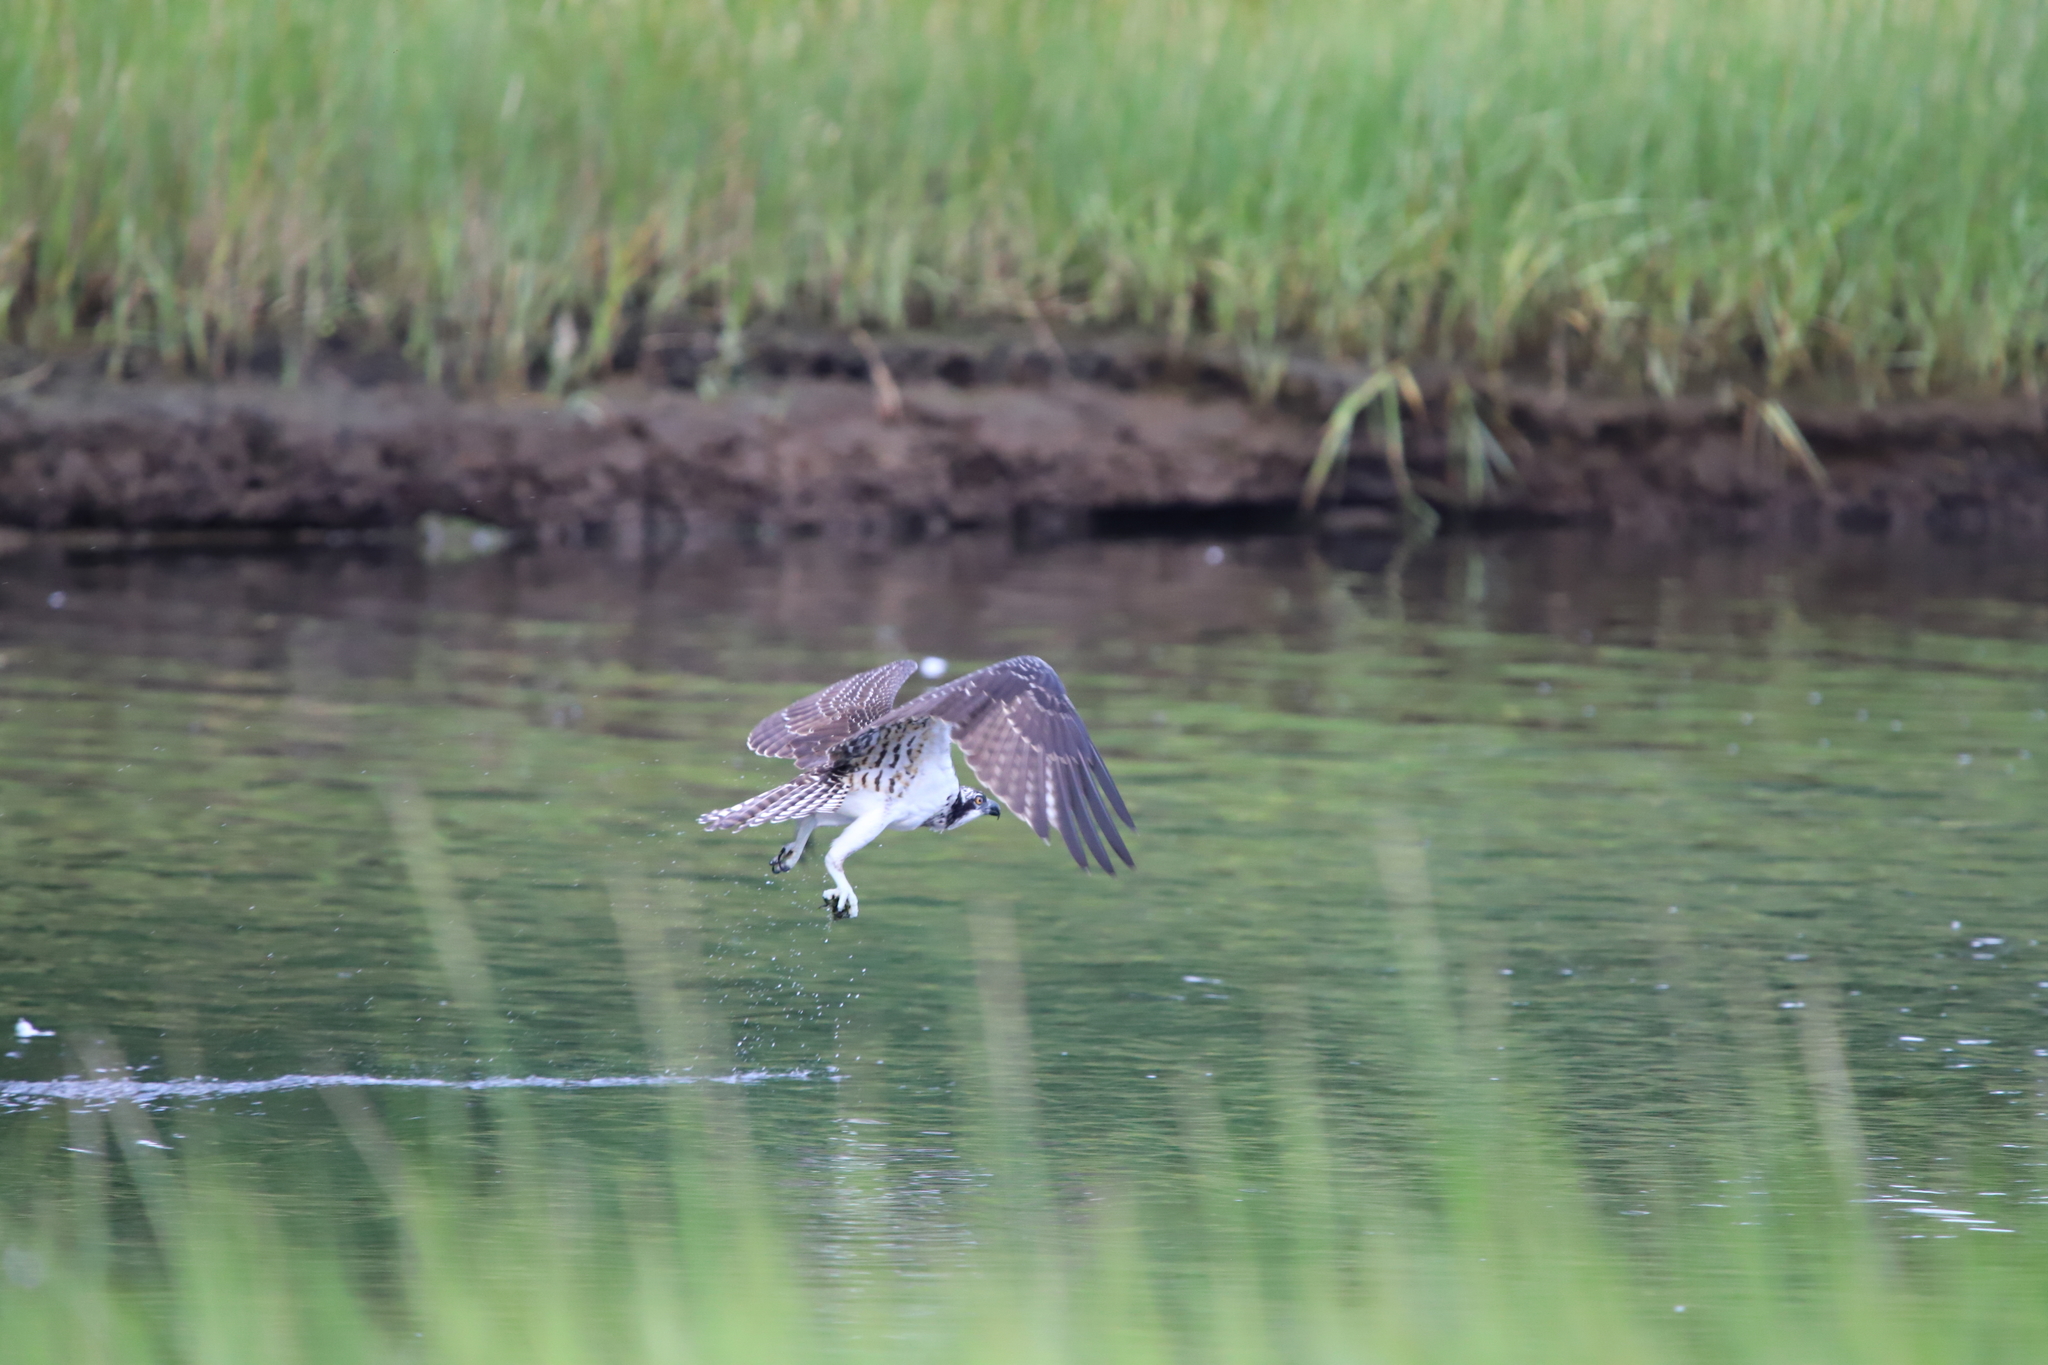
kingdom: Animalia
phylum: Chordata
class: Aves
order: Accipitriformes
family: Pandionidae
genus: Pandion
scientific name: Pandion haliaetus
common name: Osprey
